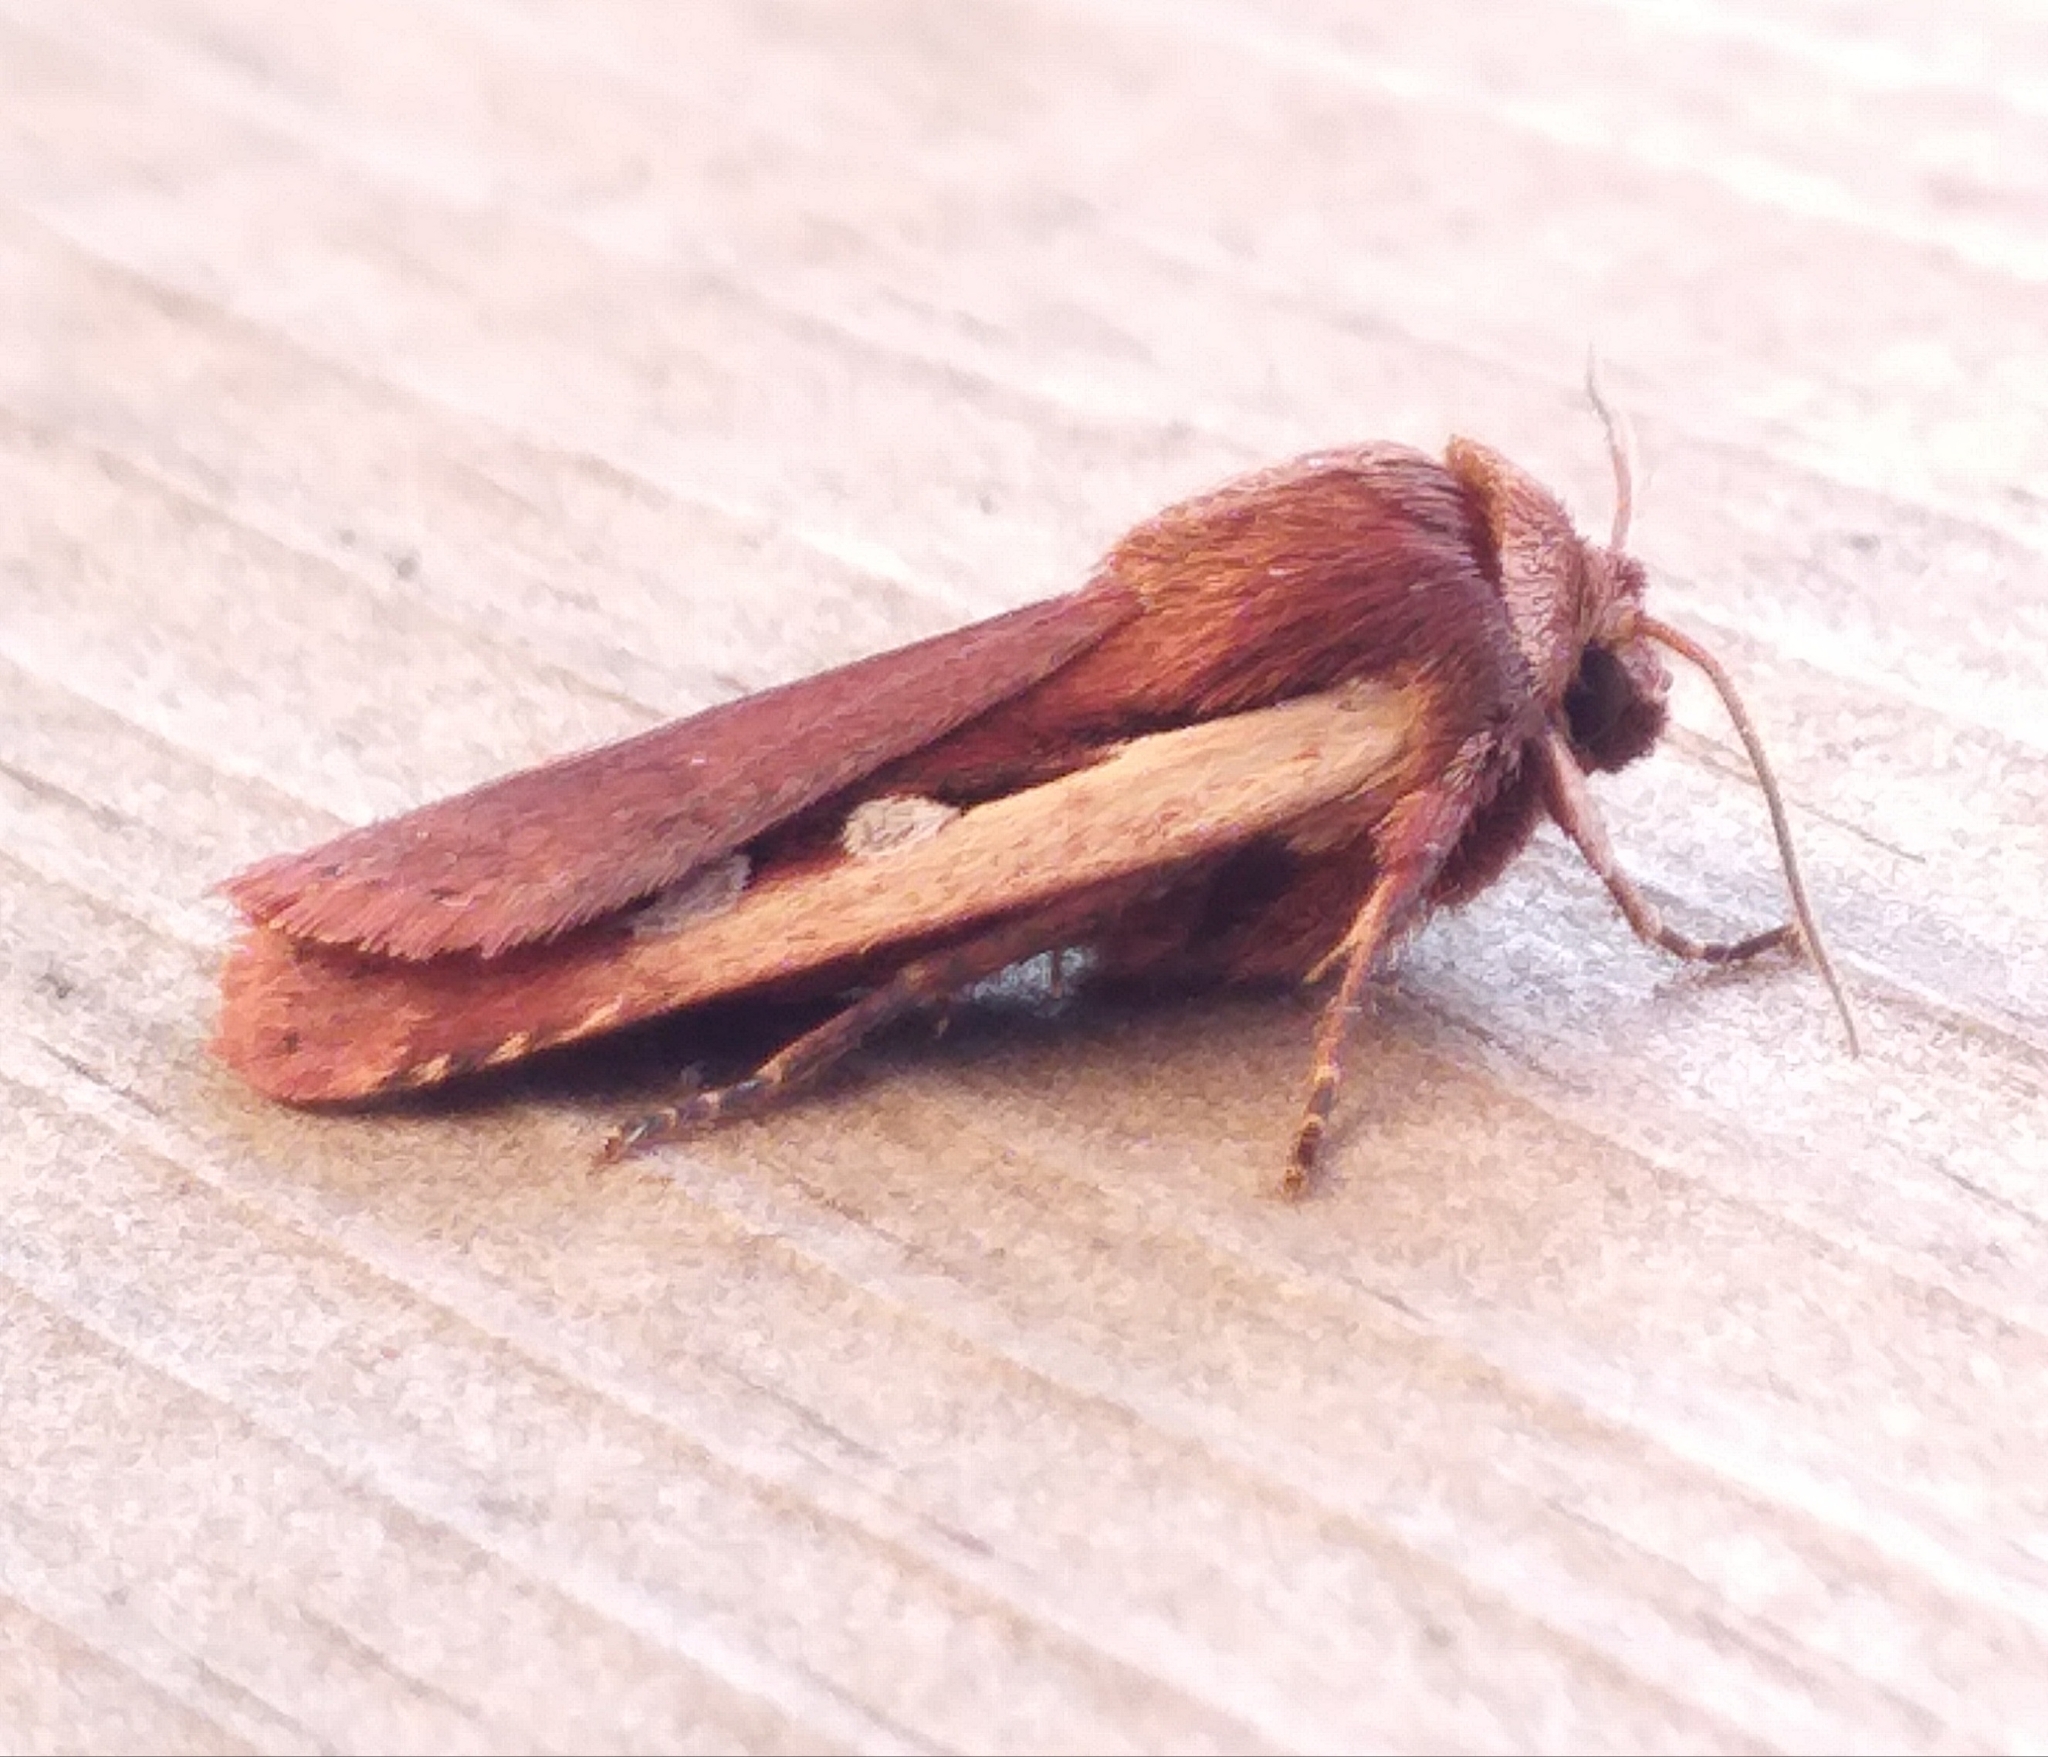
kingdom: Animalia
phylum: Arthropoda
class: Insecta
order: Lepidoptera
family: Noctuidae
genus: Ochropleura
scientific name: Ochropleura plecta
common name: Flame shoulder
